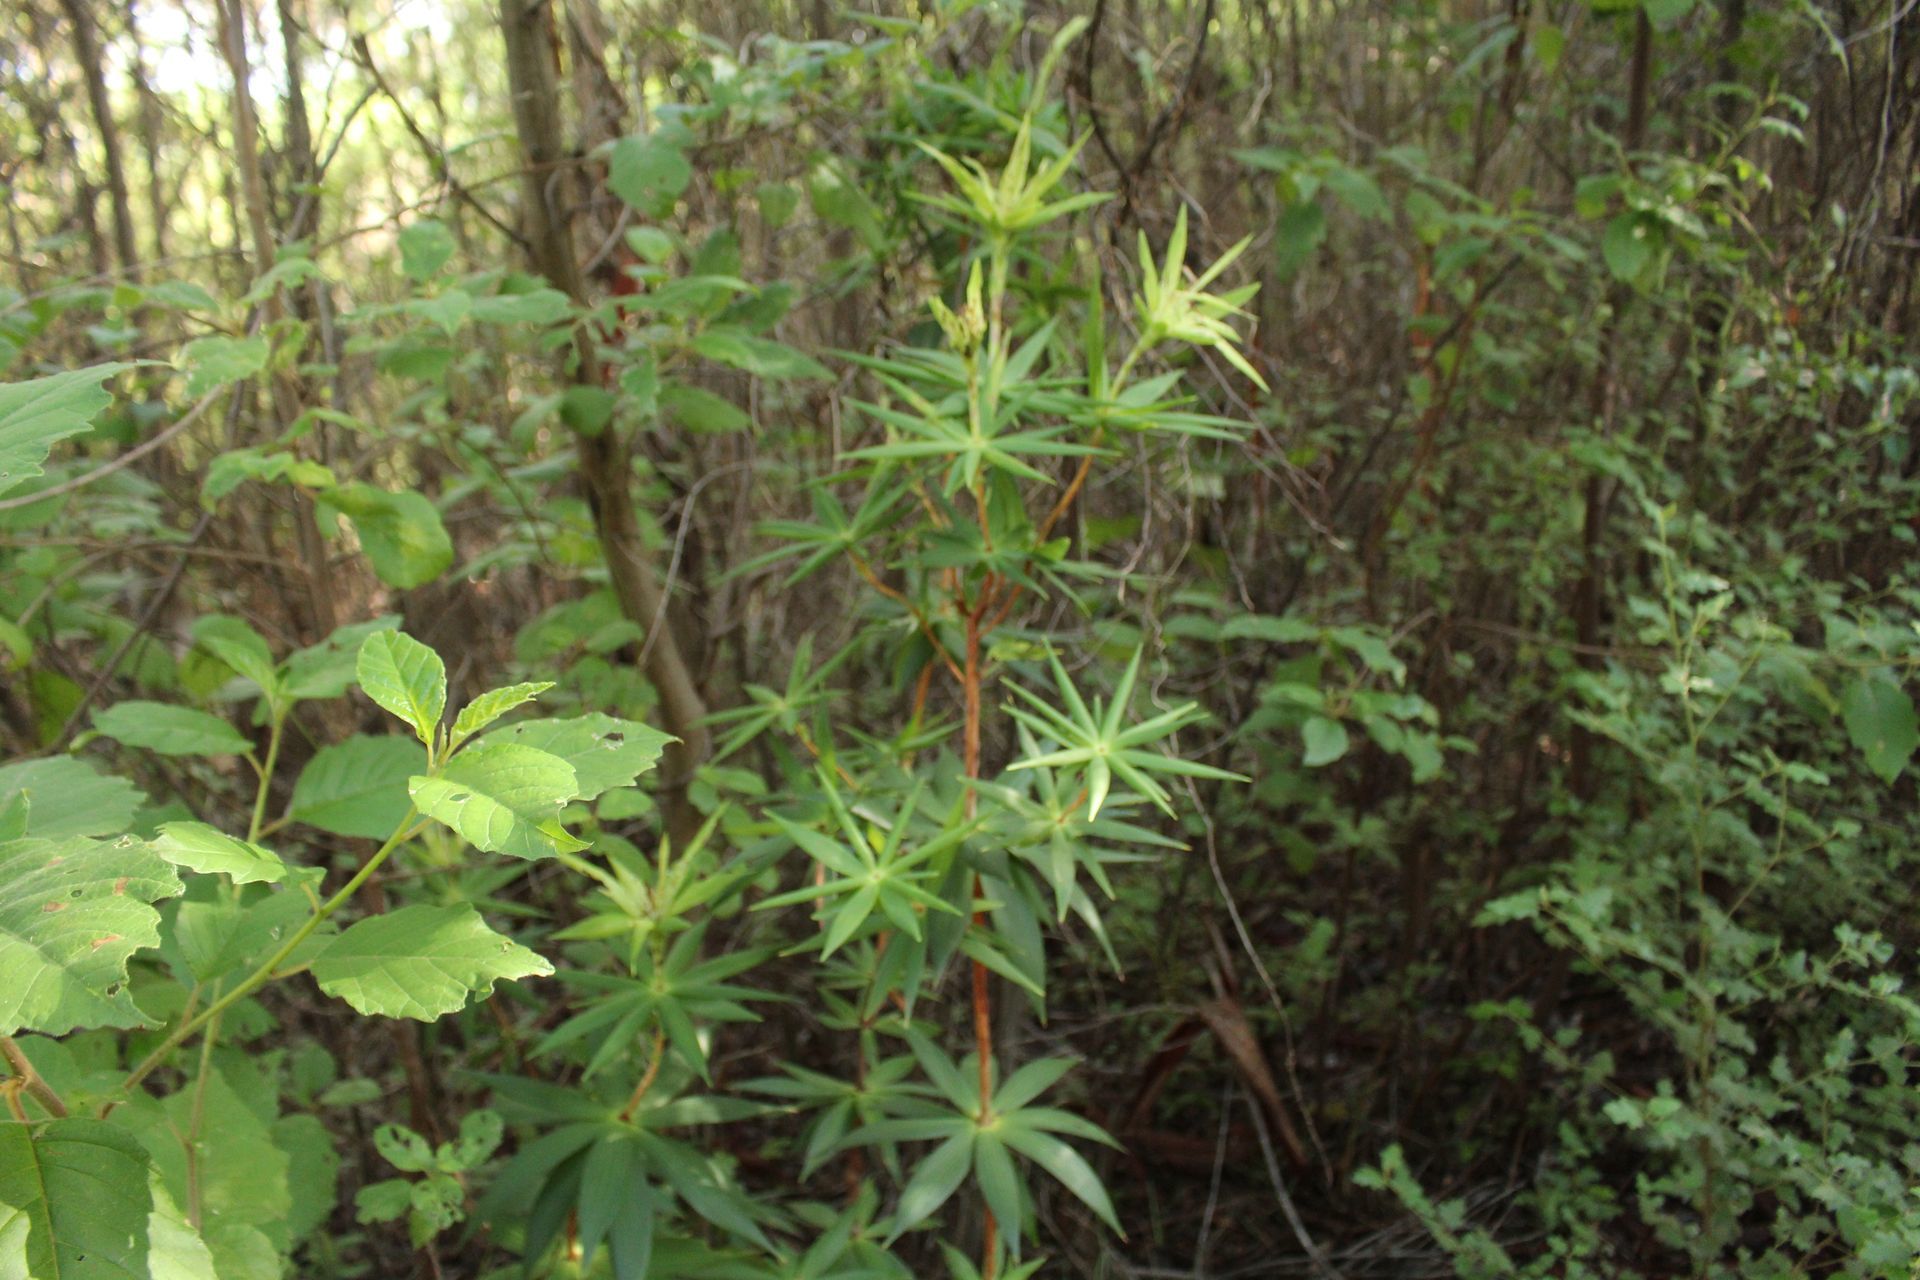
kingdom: Plantae
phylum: Tracheophyta
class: Magnoliopsida
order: Ericales
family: Ericaceae
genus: Leucopogon
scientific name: Leucopogon verticillatus
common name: Tasselshrub
